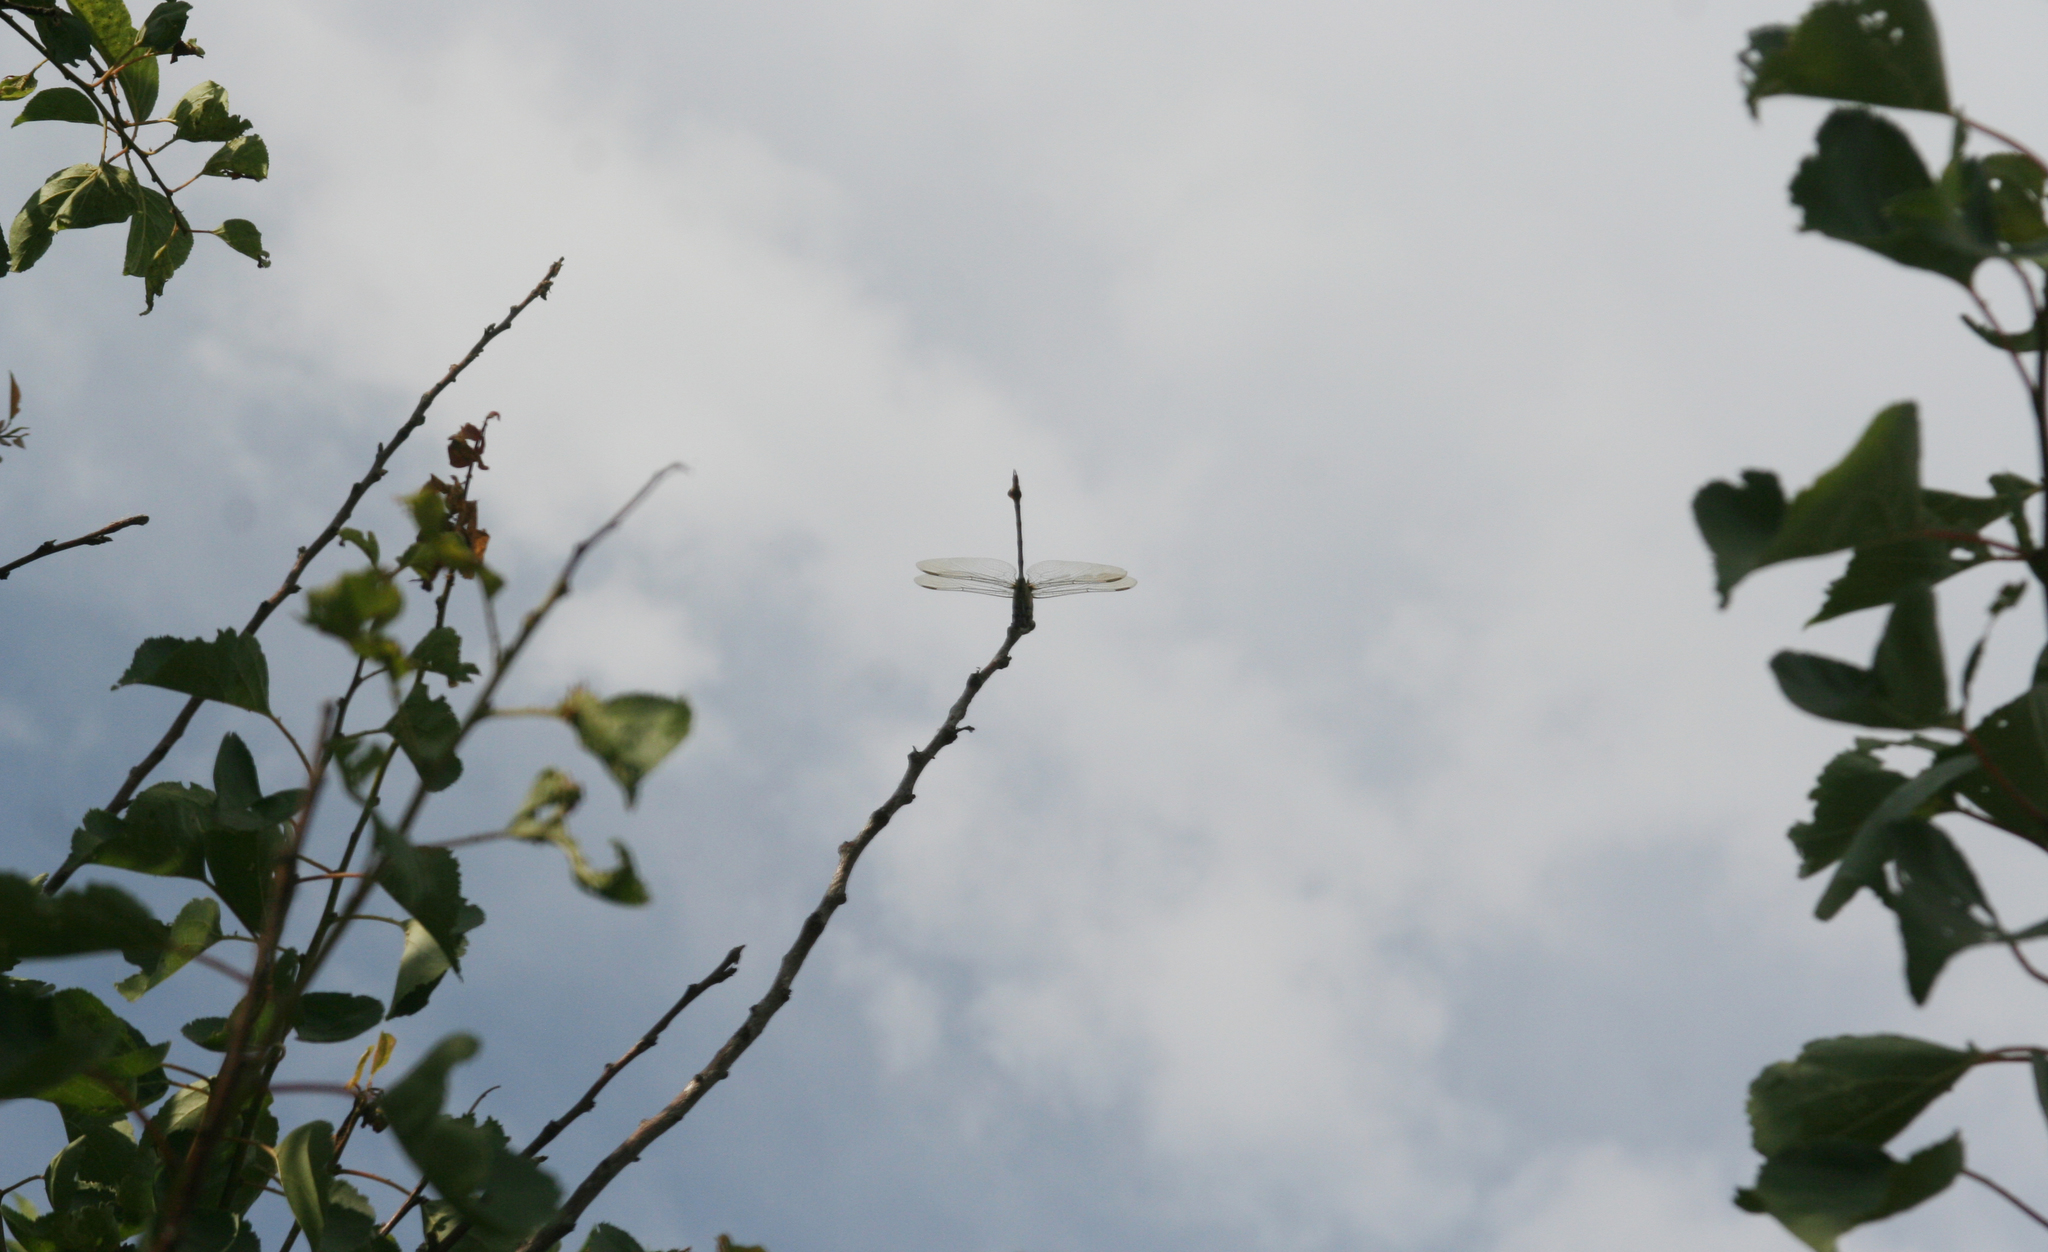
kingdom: Animalia
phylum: Arthropoda
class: Insecta
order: Odonata
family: Gomphidae
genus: Lindenia
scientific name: Lindenia tetraphylla
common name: Bladetail
